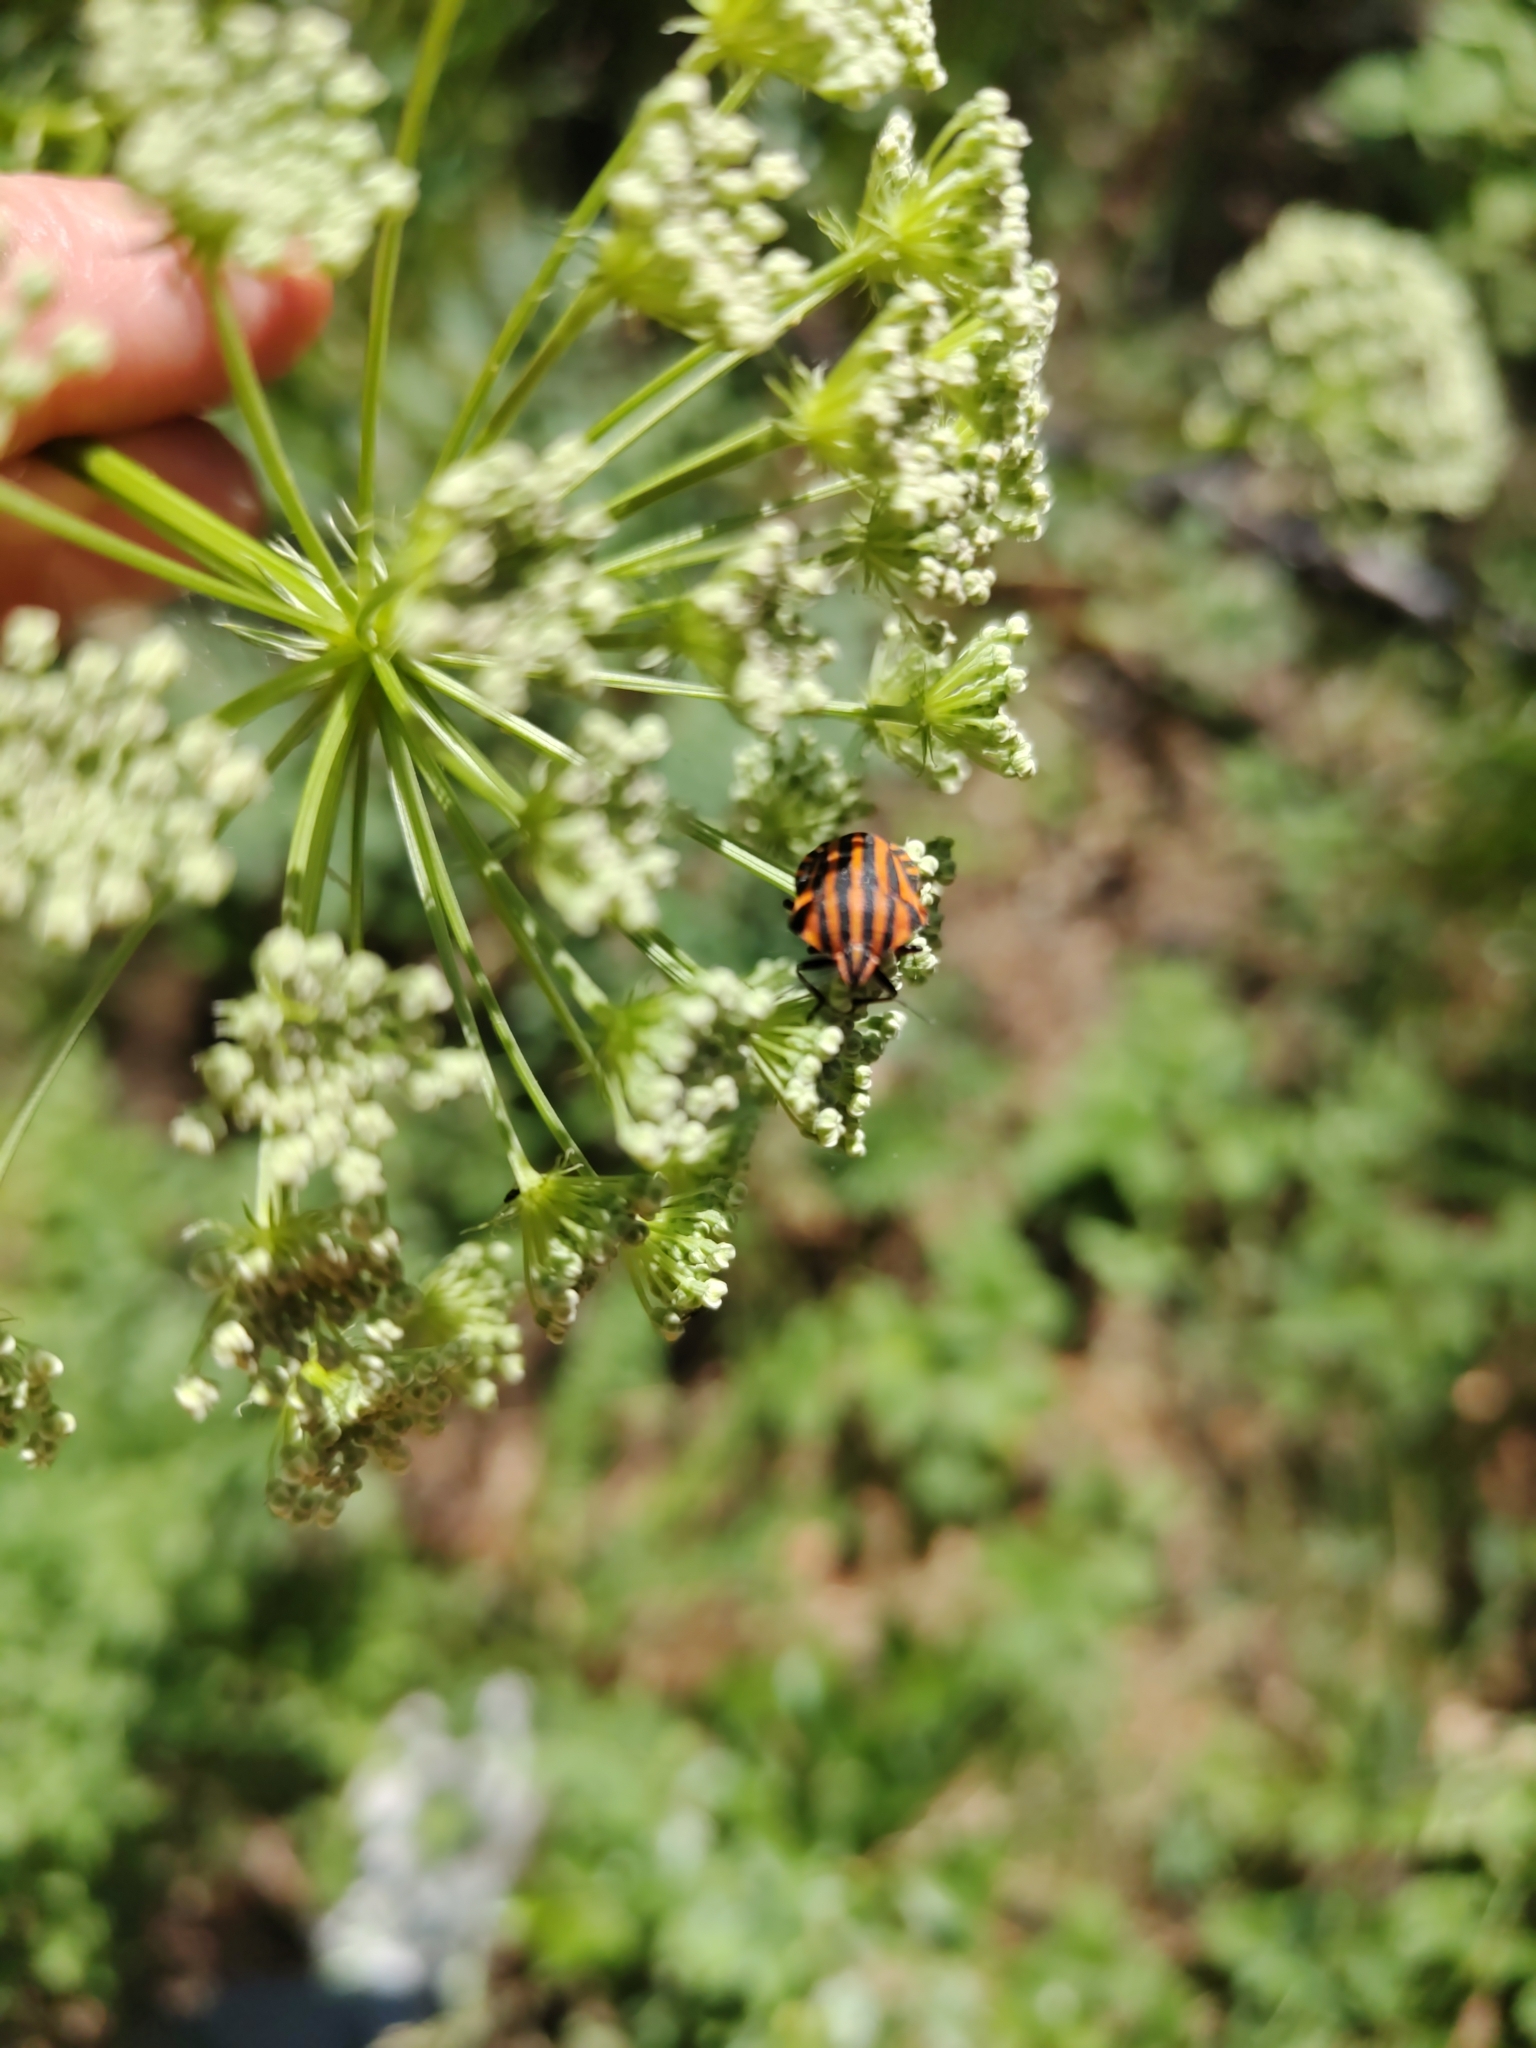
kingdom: Animalia
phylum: Arthropoda
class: Insecta
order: Hemiptera
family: Pentatomidae
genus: Graphosoma
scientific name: Graphosoma italicum
